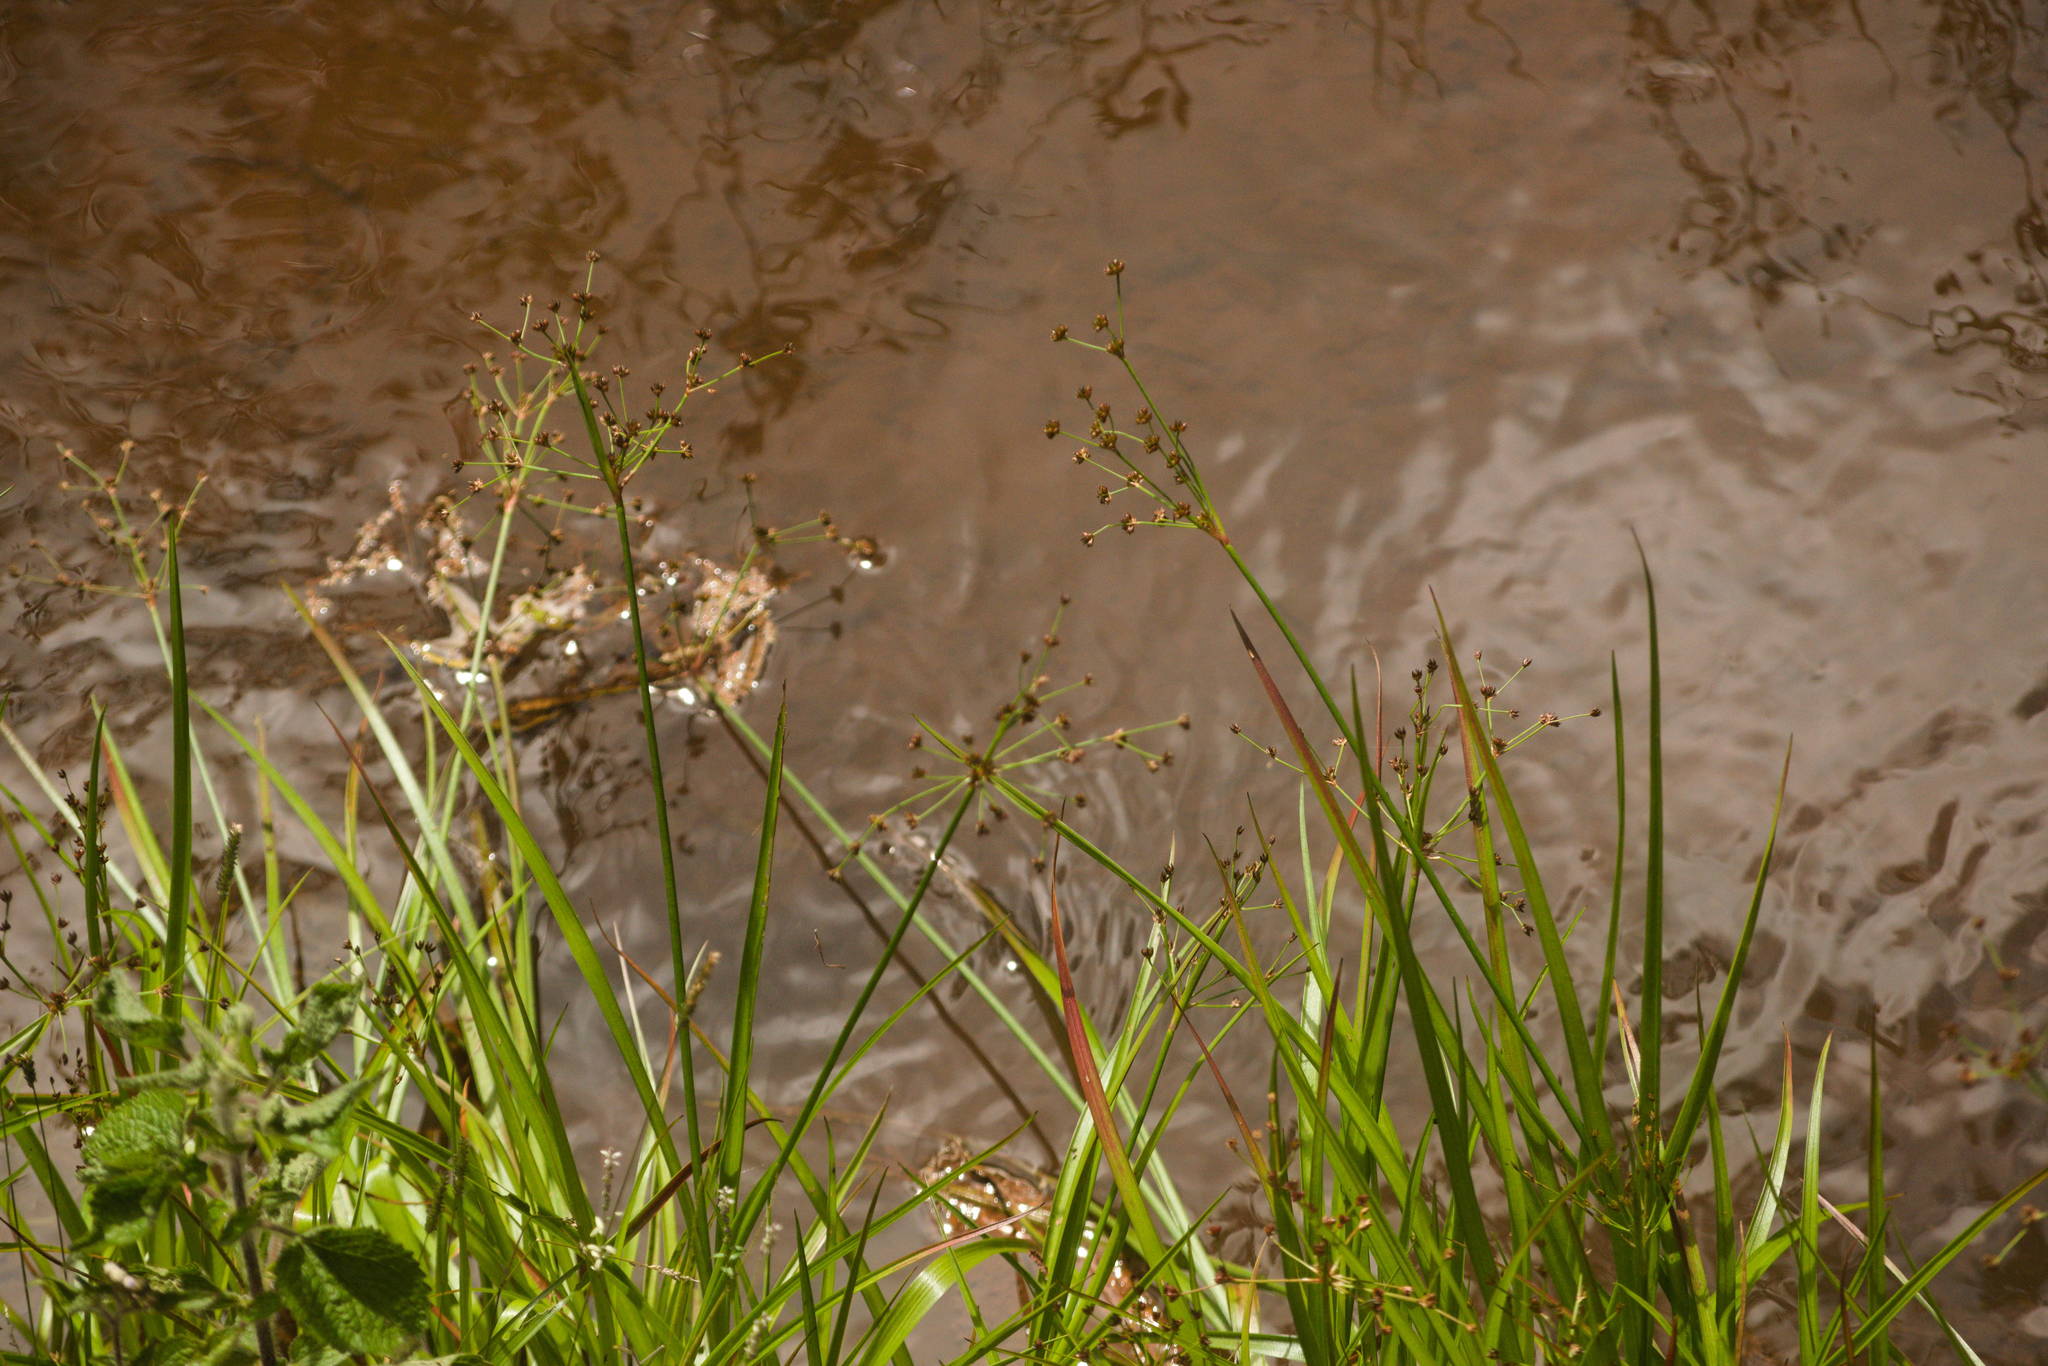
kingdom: Plantae
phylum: Tracheophyta
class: Liliopsida
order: Poales
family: Juncaceae
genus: Juncus
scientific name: Juncus planifolius
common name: Broadleaf rush
